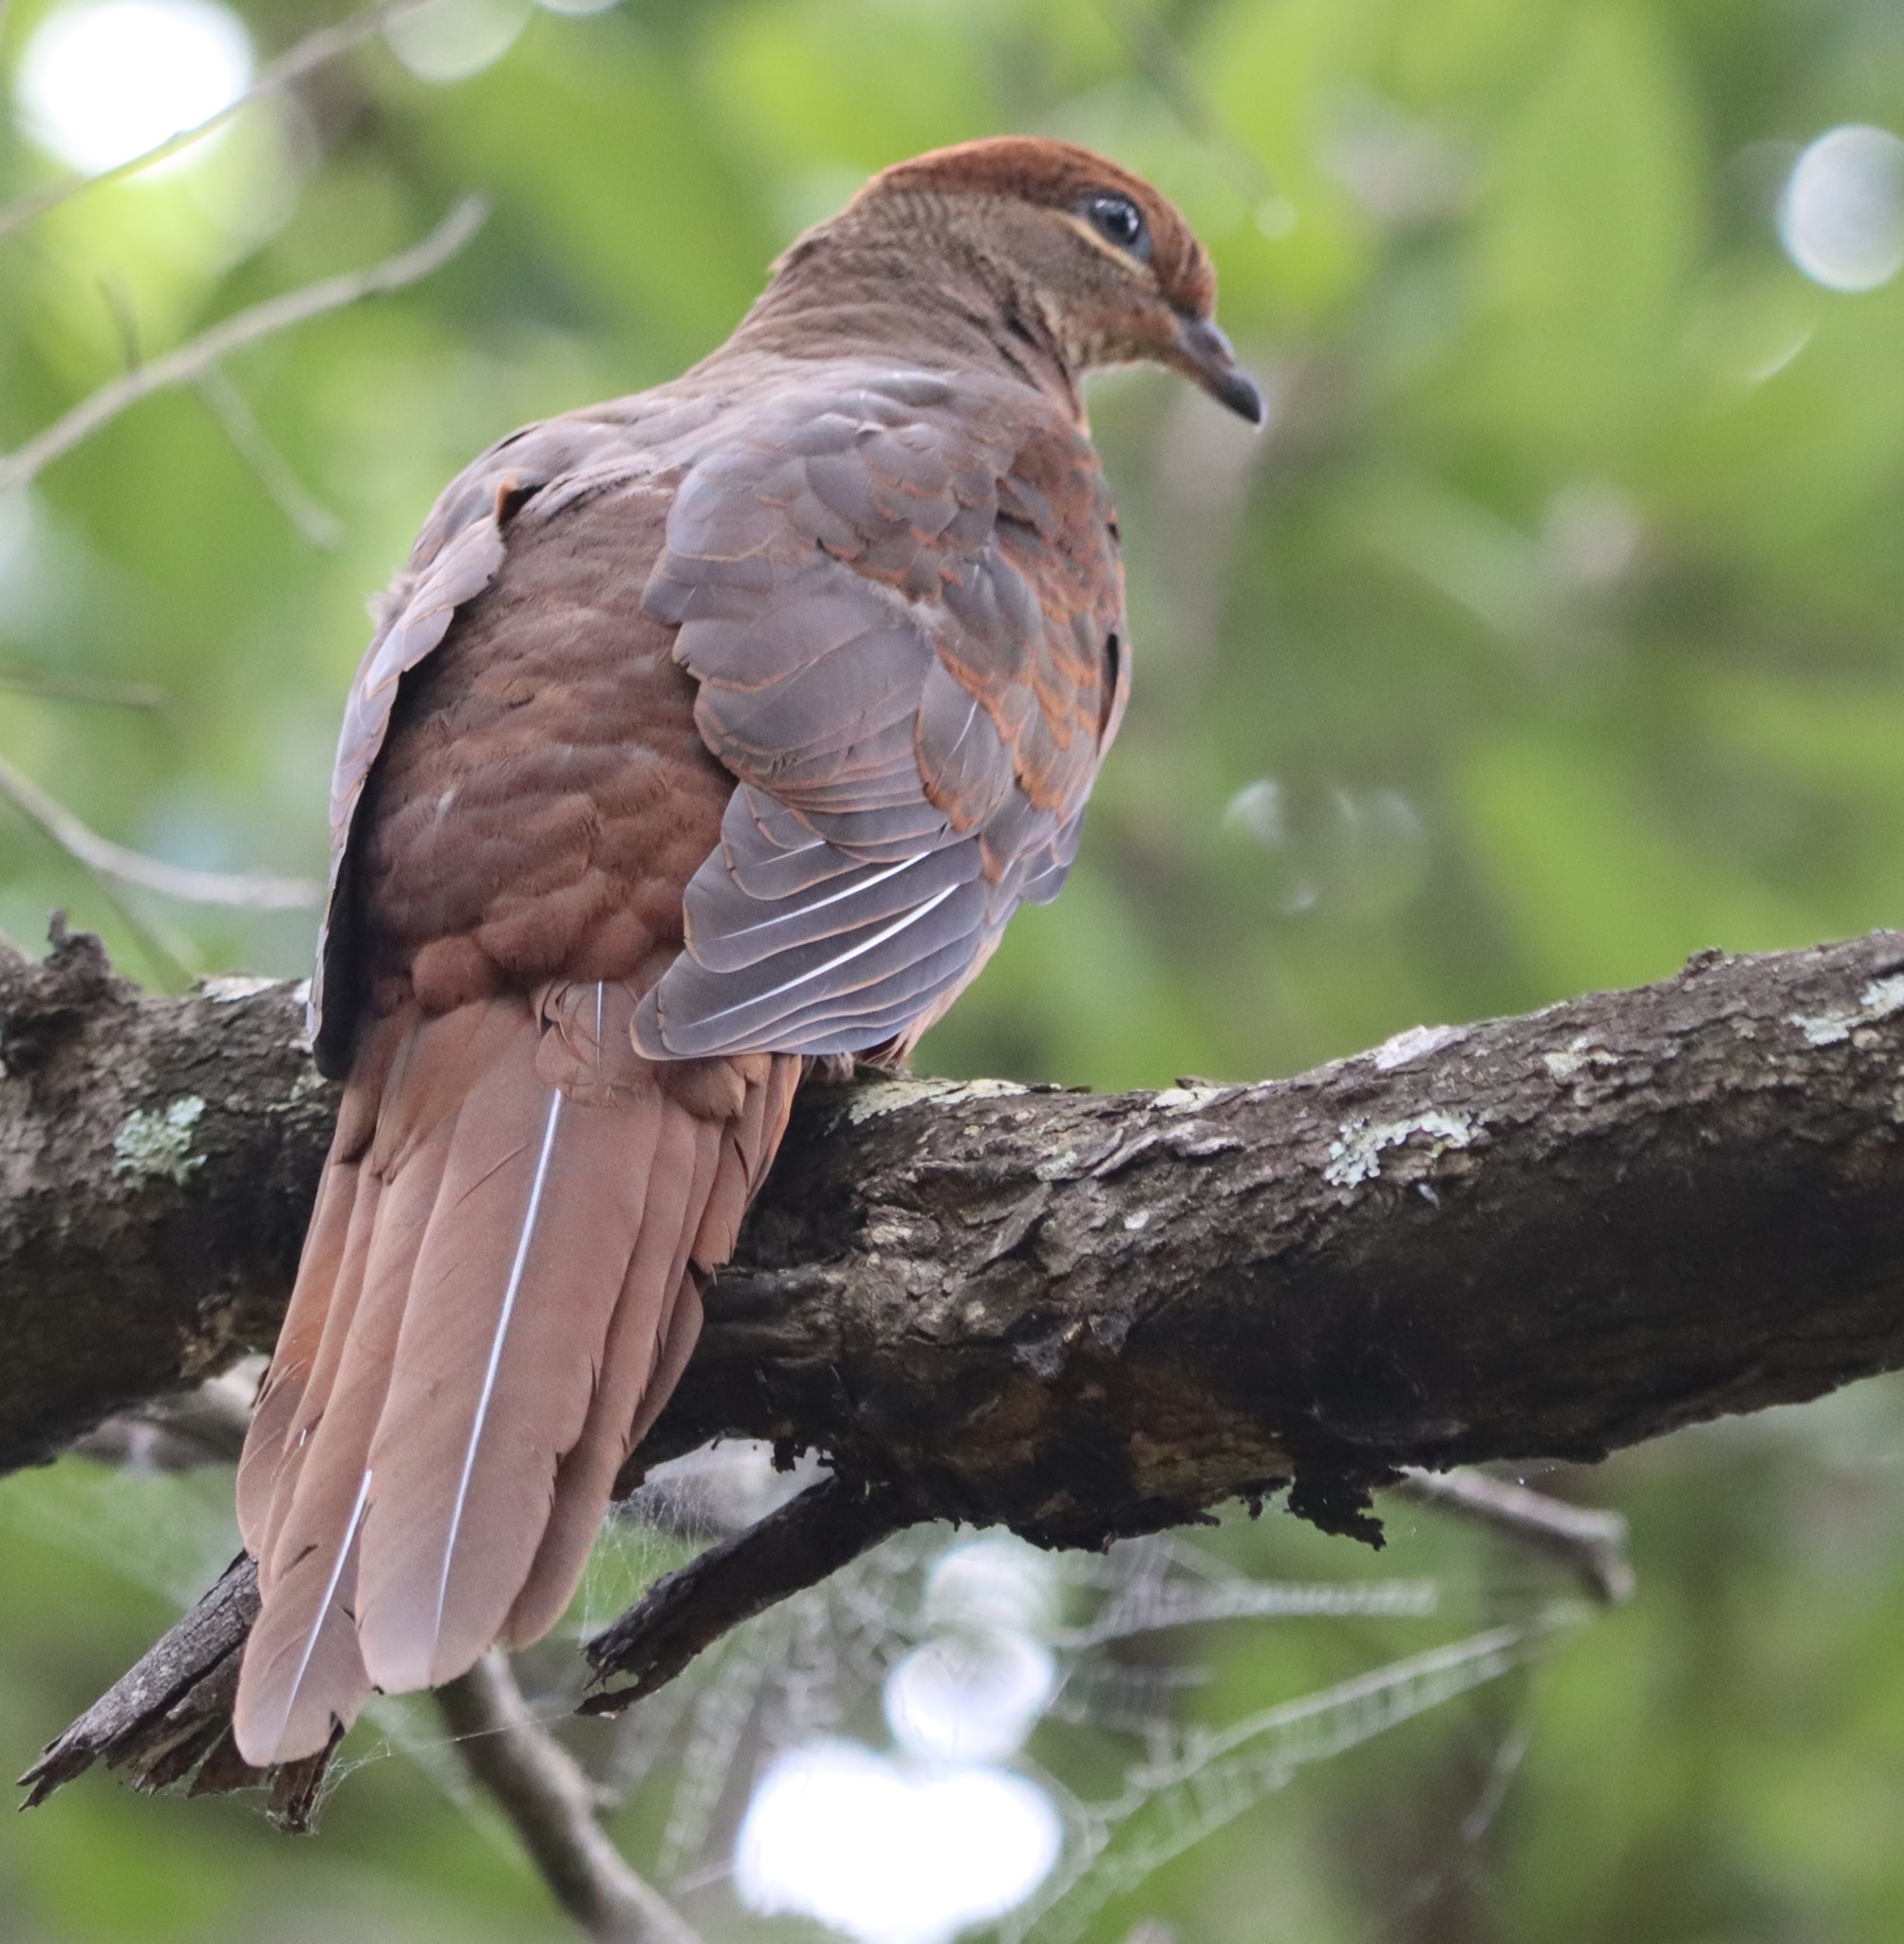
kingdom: Animalia
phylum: Chordata
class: Aves
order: Columbiformes
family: Columbidae
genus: Macropygia
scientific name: Macropygia phasianella
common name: Brown cuckoo-dove
